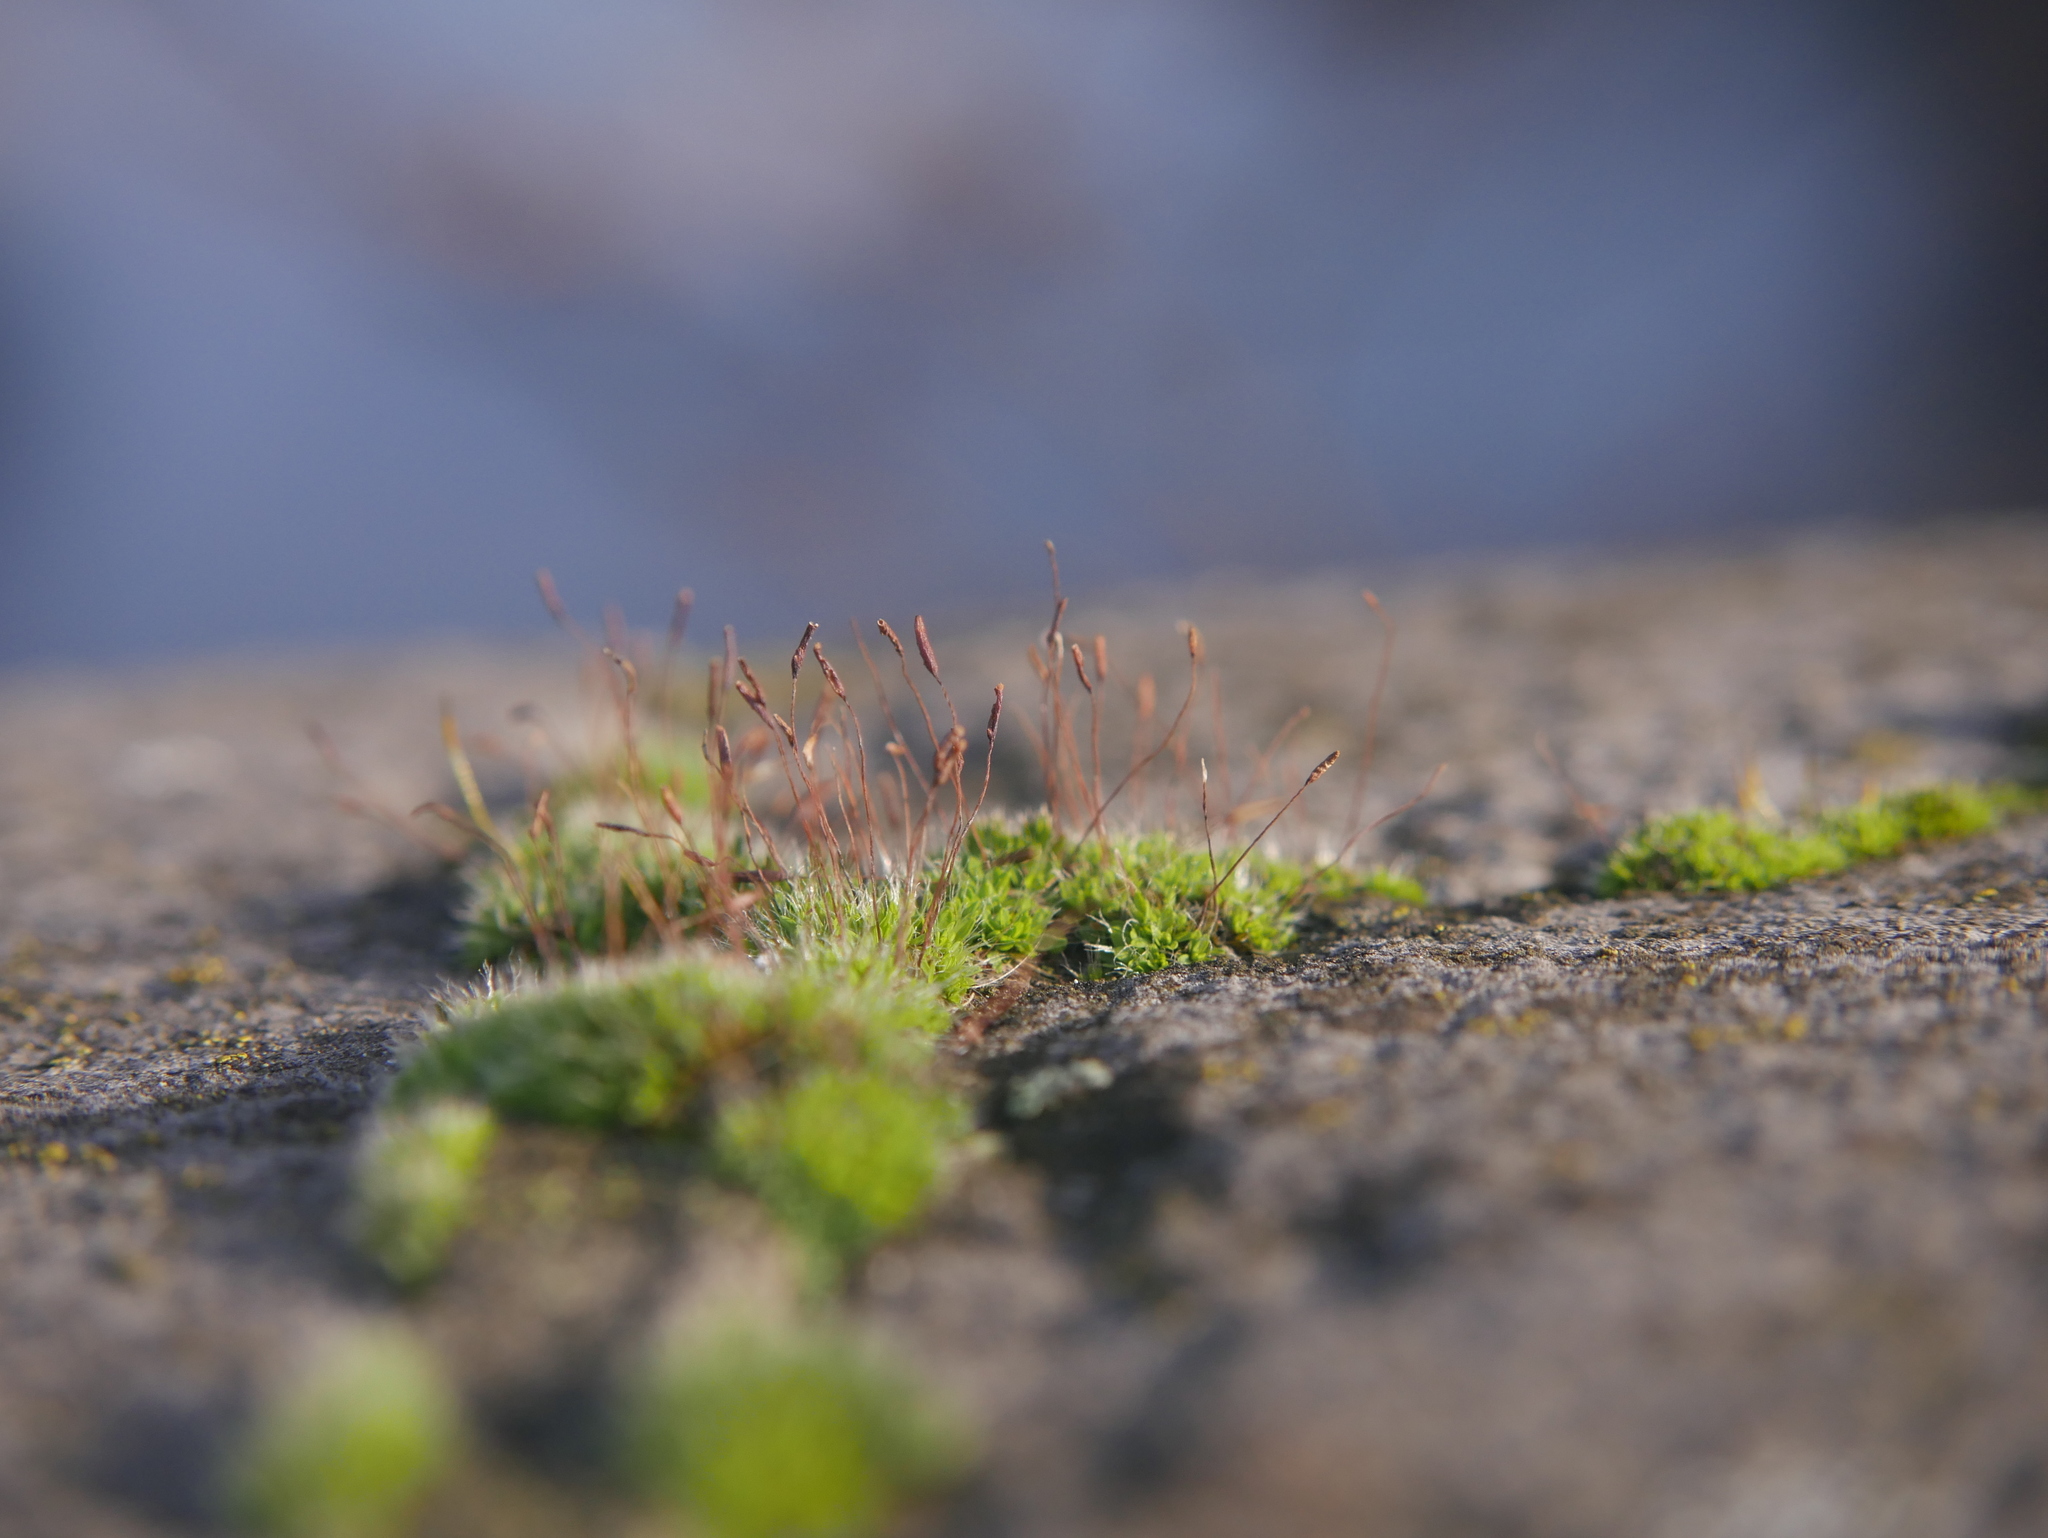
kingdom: Plantae
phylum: Bryophyta
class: Bryopsida
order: Pottiales
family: Pottiaceae
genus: Tortula
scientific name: Tortula muralis
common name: Wall screw-moss
